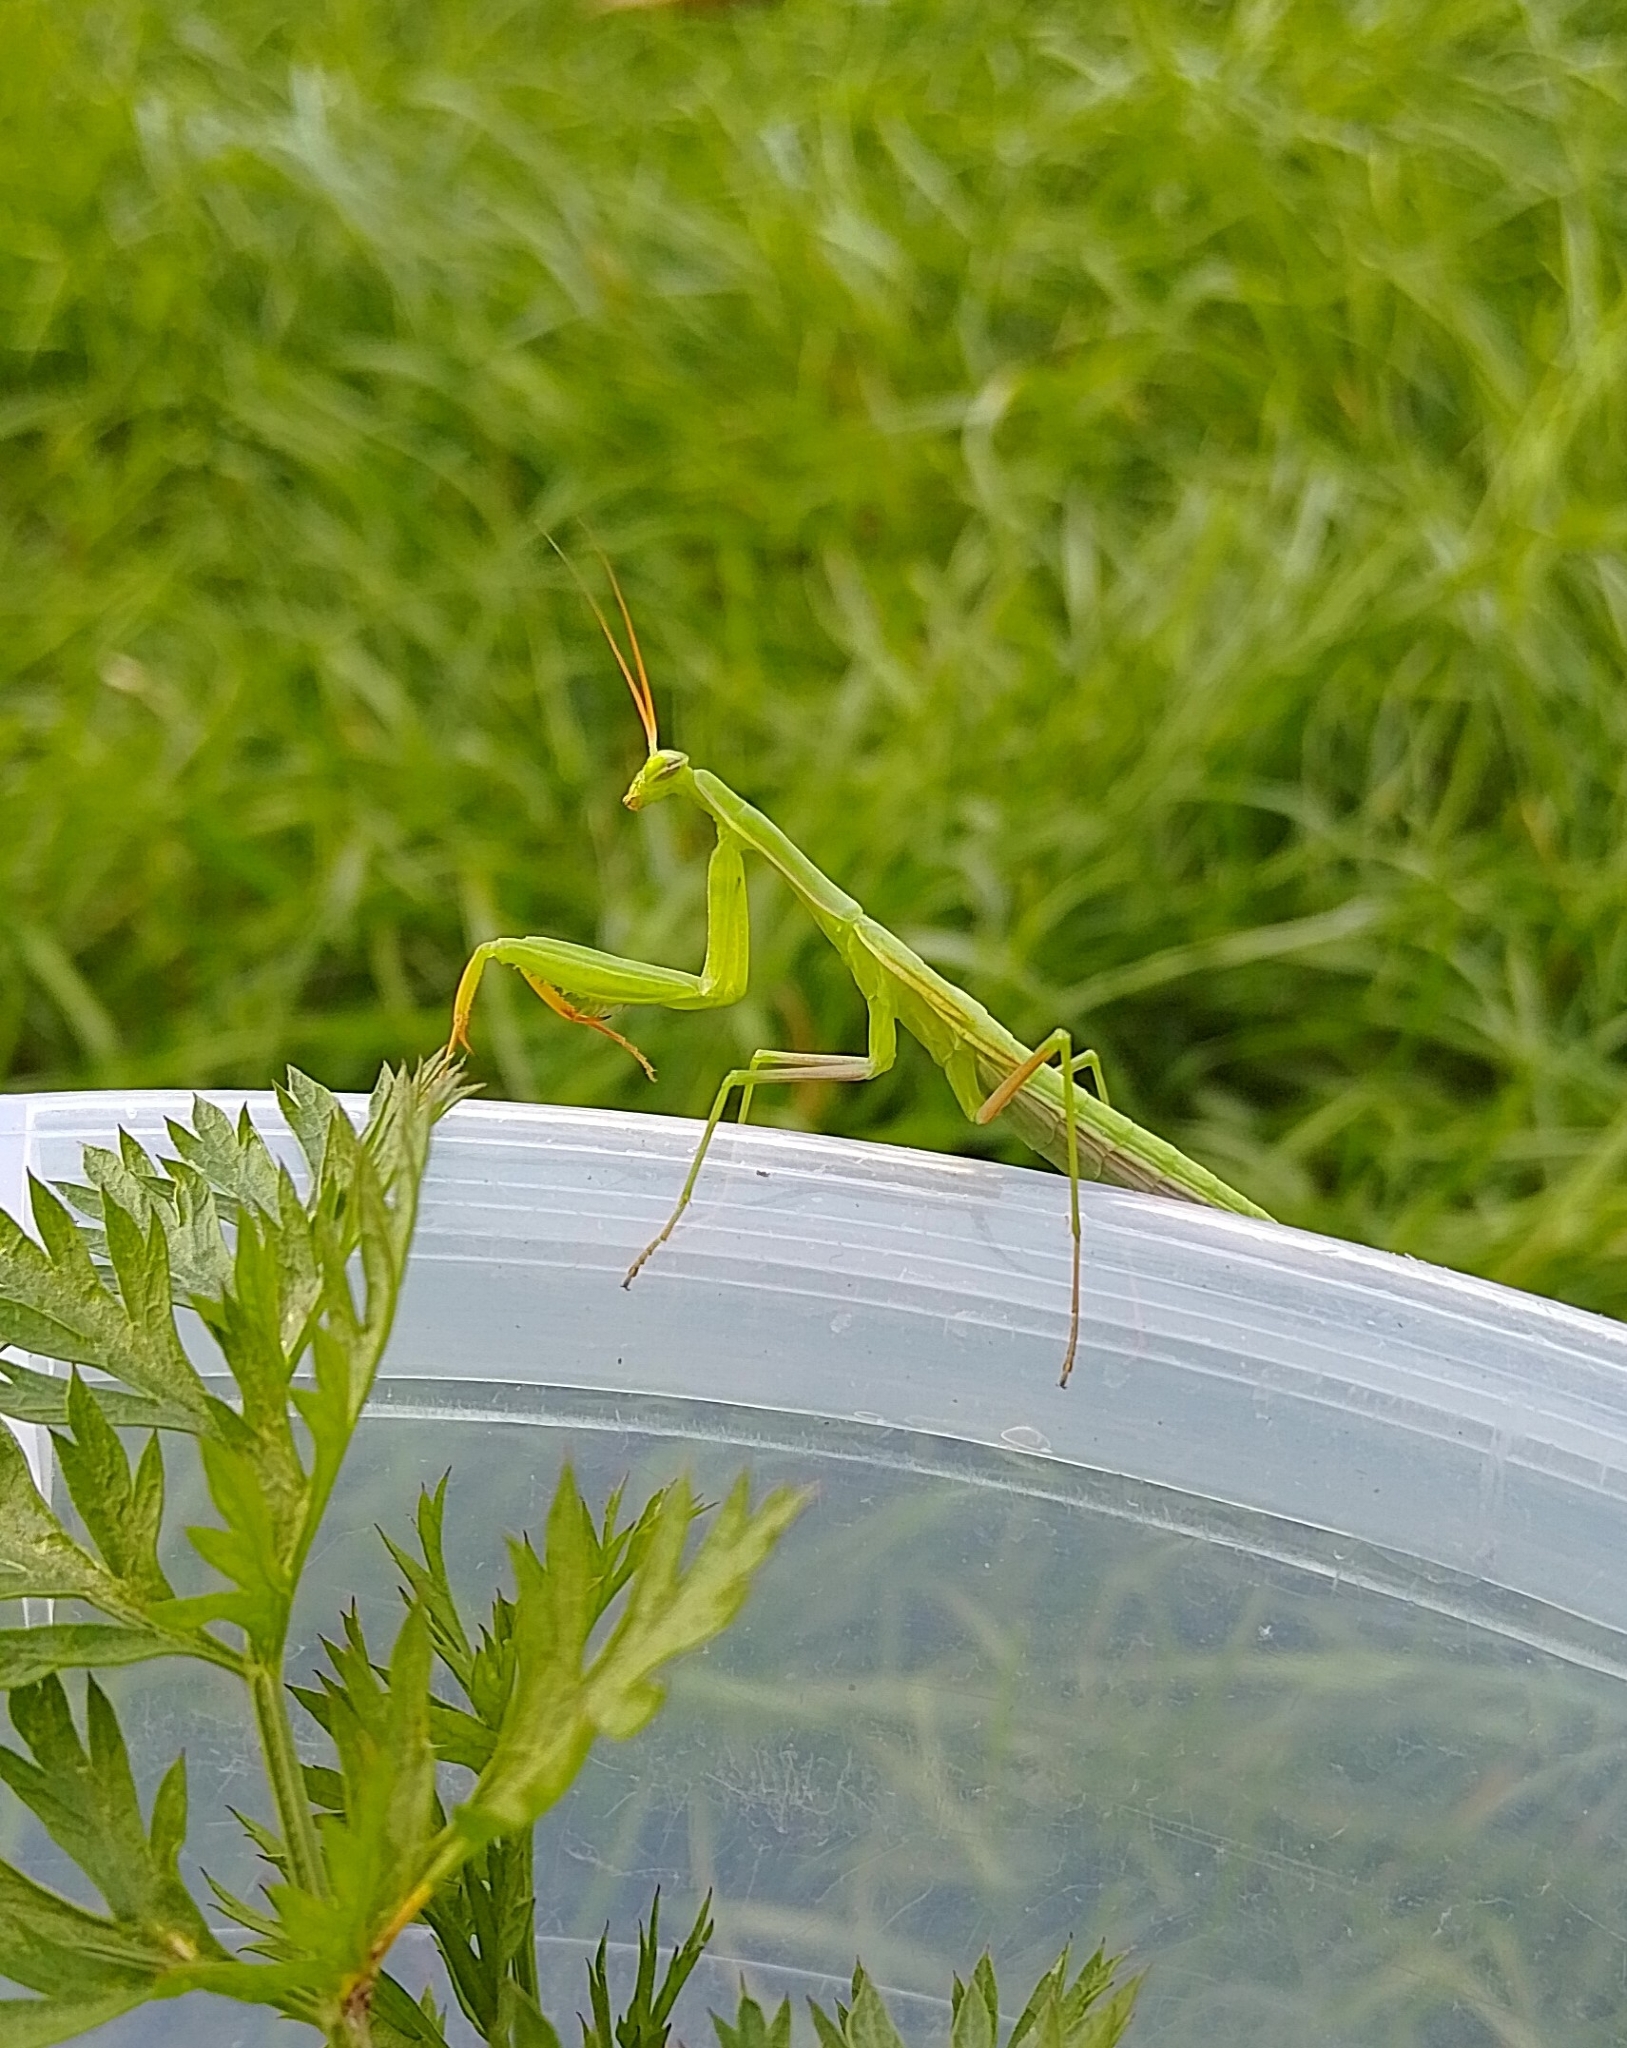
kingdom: Animalia
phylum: Arthropoda
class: Insecta
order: Mantodea
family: Mantidae
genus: Mantis
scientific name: Mantis religiosa
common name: Praying mantis
